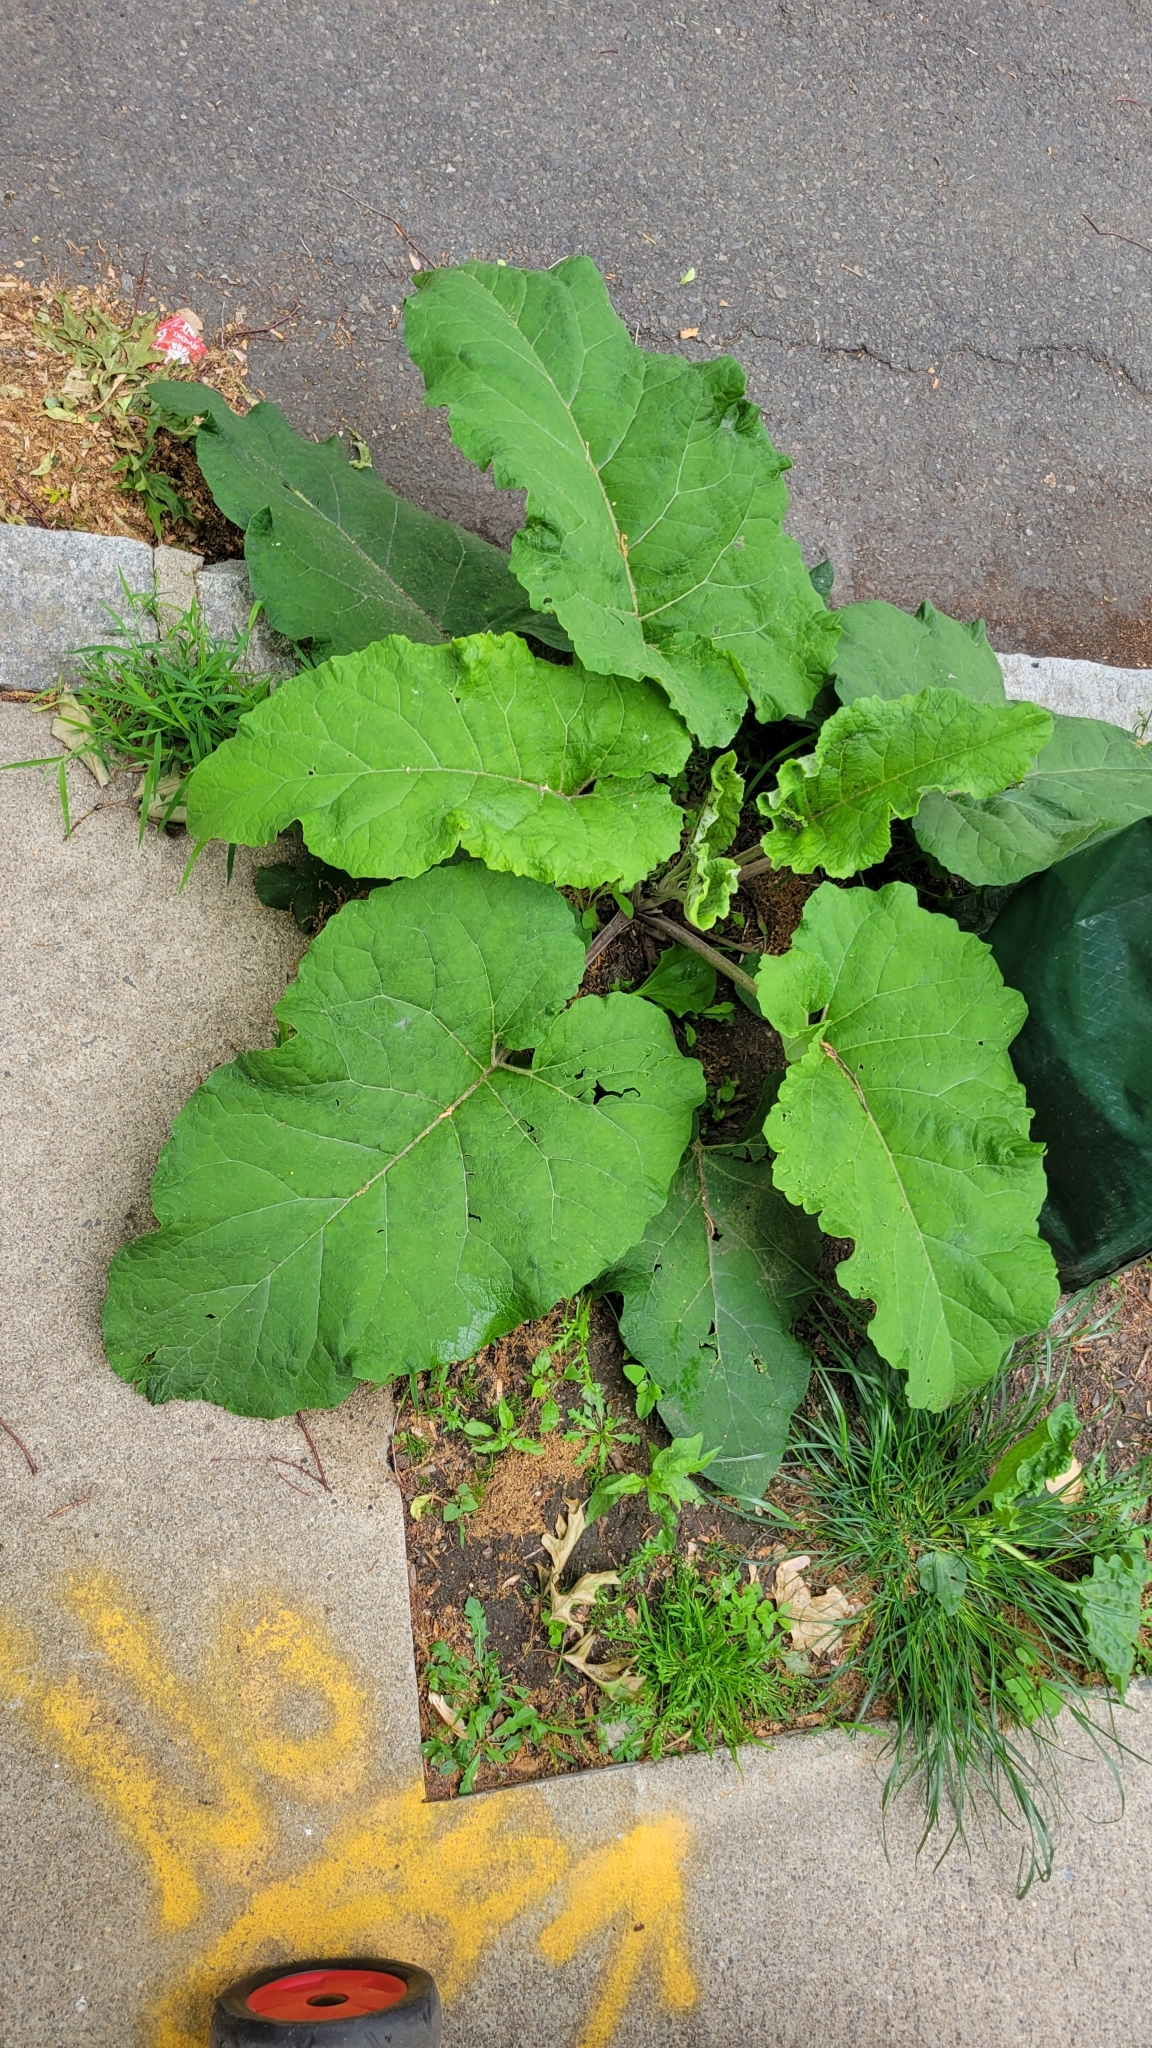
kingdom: Plantae
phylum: Tracheophyta
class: Magnoliopsida
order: Asterales
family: Asteraceae
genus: Arctium
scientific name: Arctium
